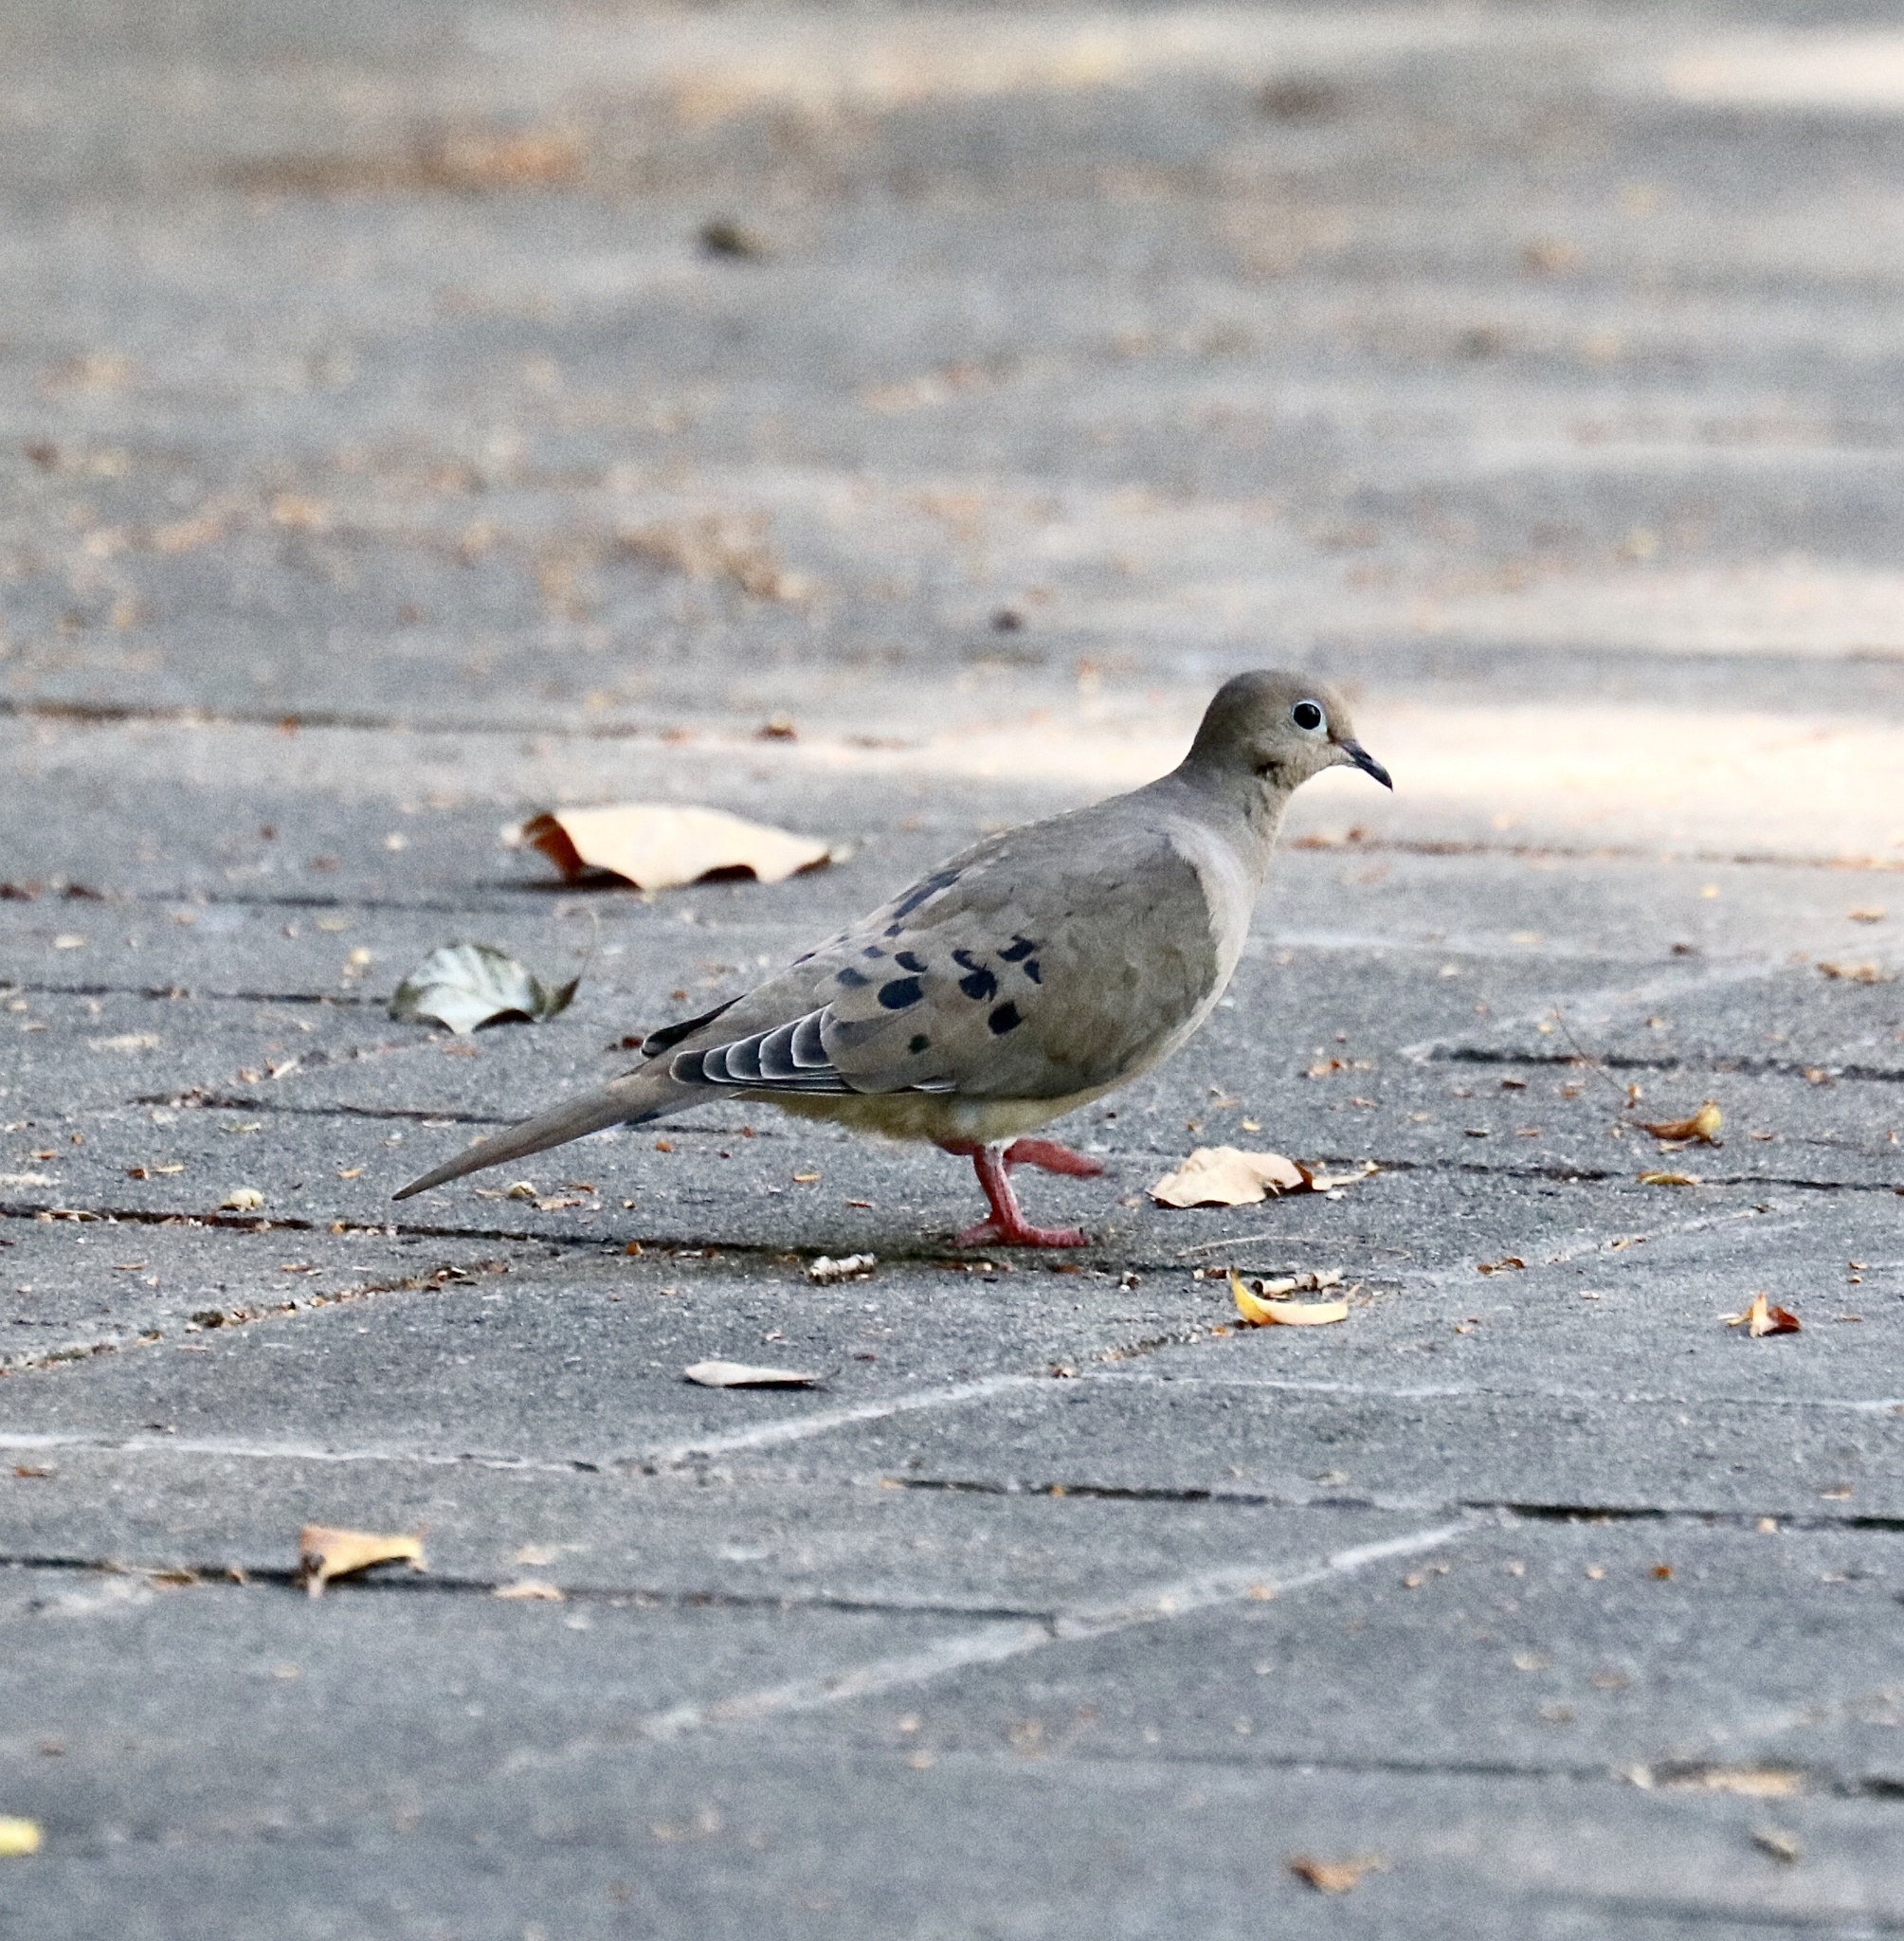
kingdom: Animalia
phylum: Chordata
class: Aves
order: Columbiformes
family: Columbidae
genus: Zenaida
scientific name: Zenaida macroura
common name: Mourning dove
